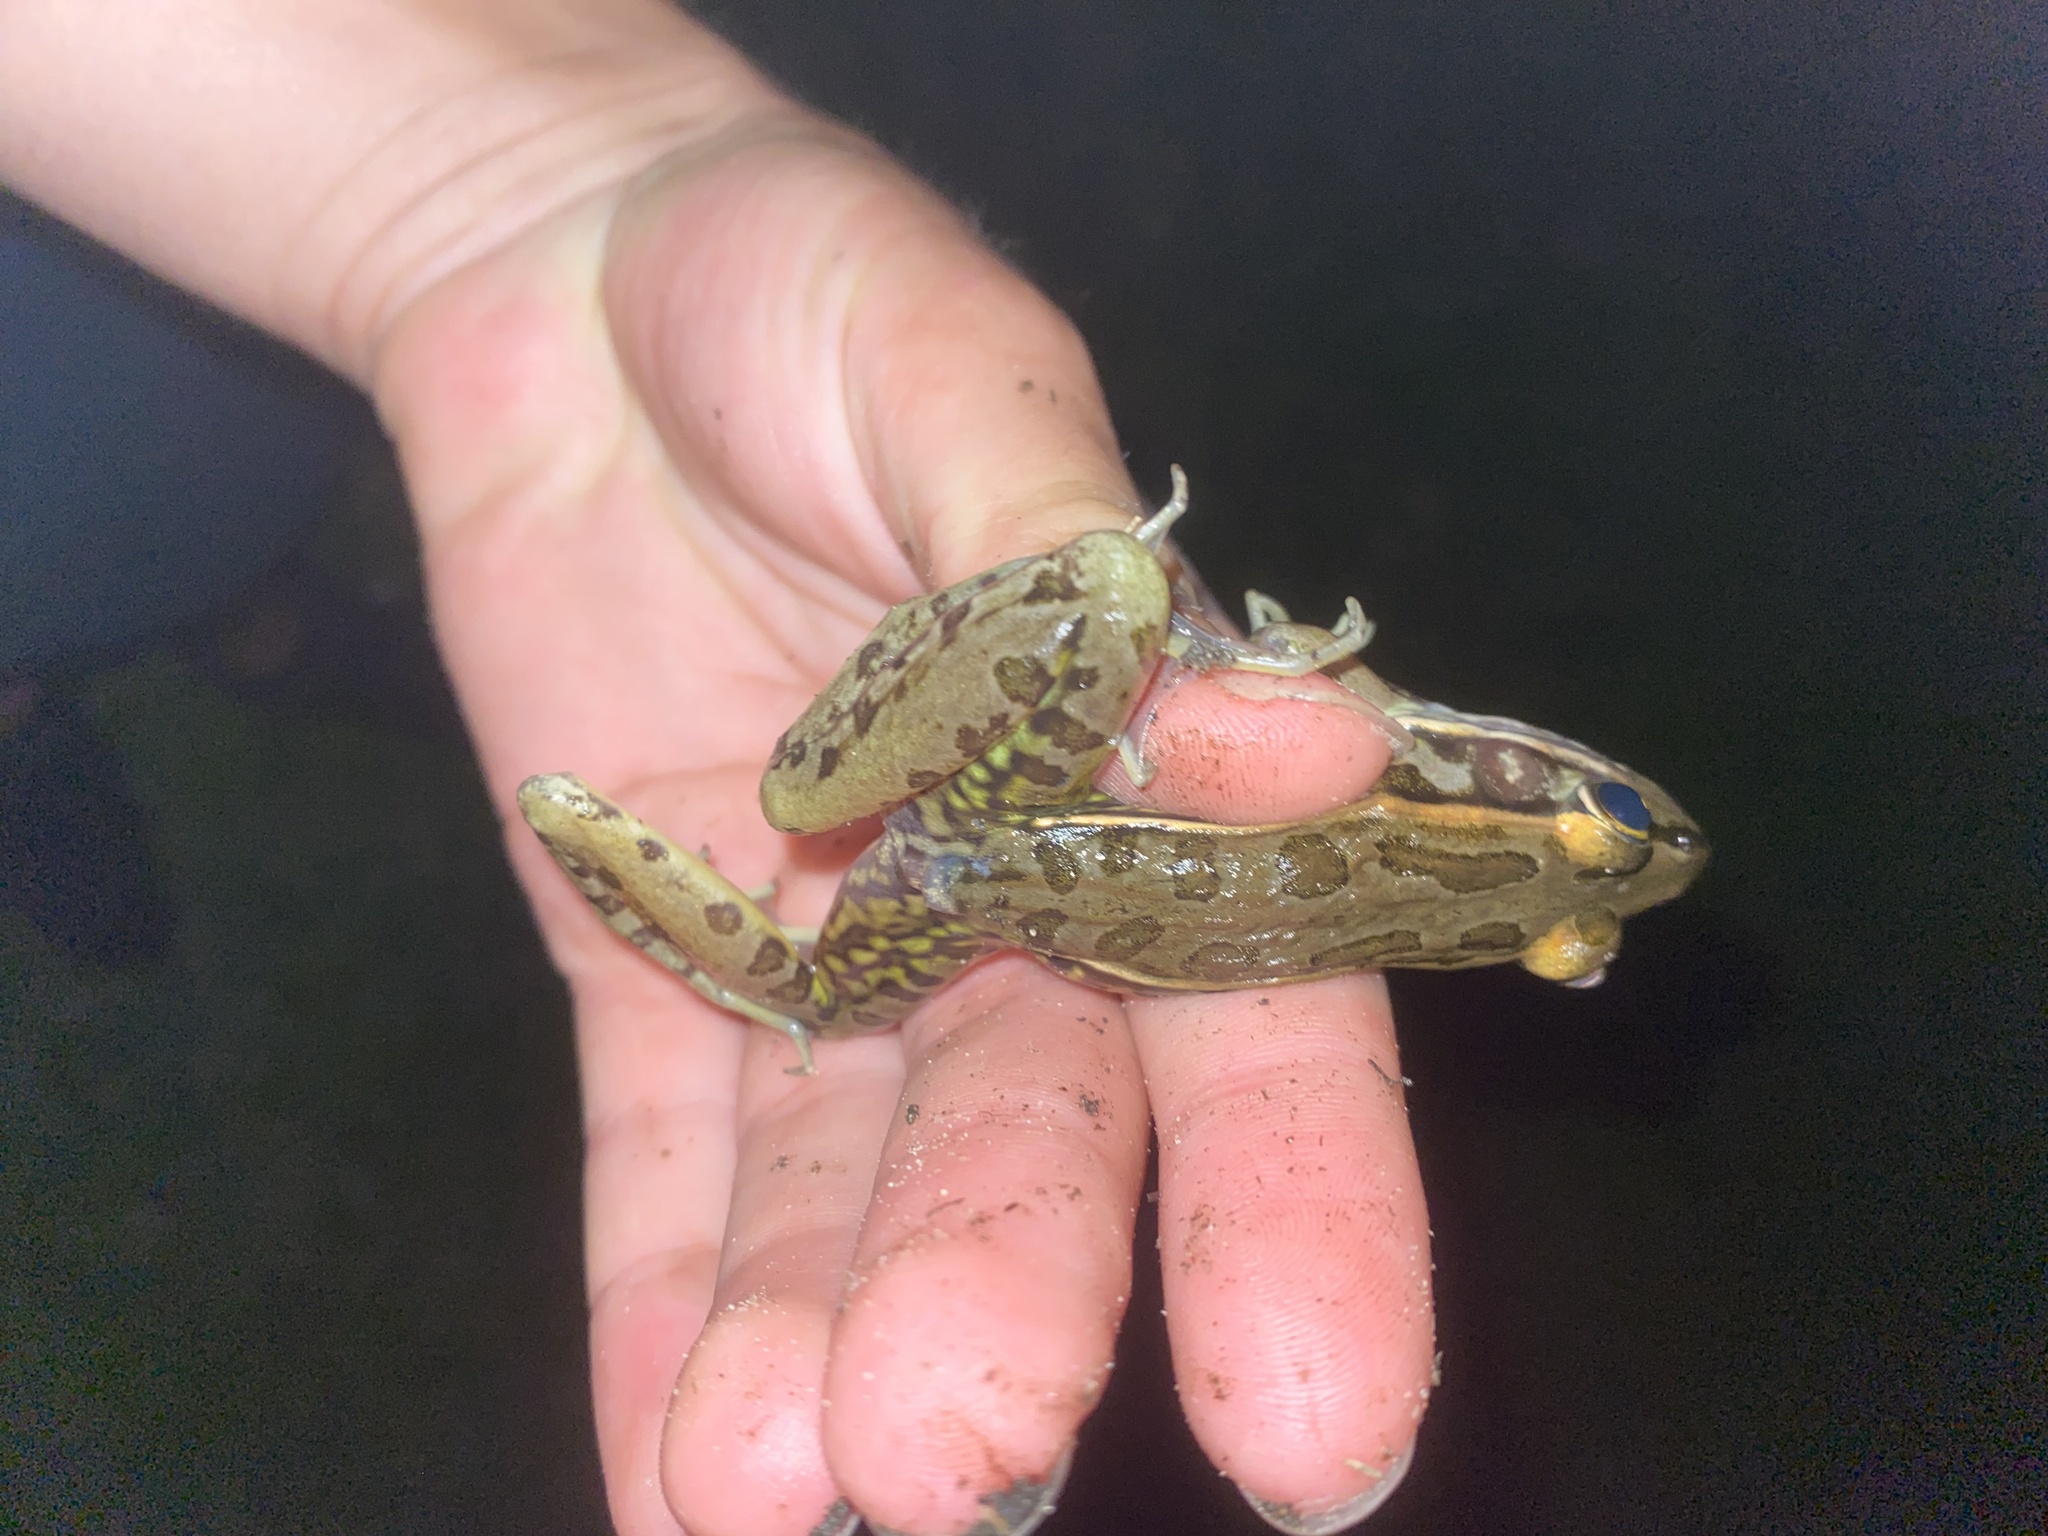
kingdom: Animalia
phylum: Chordata
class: Amphibia
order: Anura
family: Ranidae
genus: Lithobates
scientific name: Lithobates sphenocephalus
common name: Southern leopard frog
